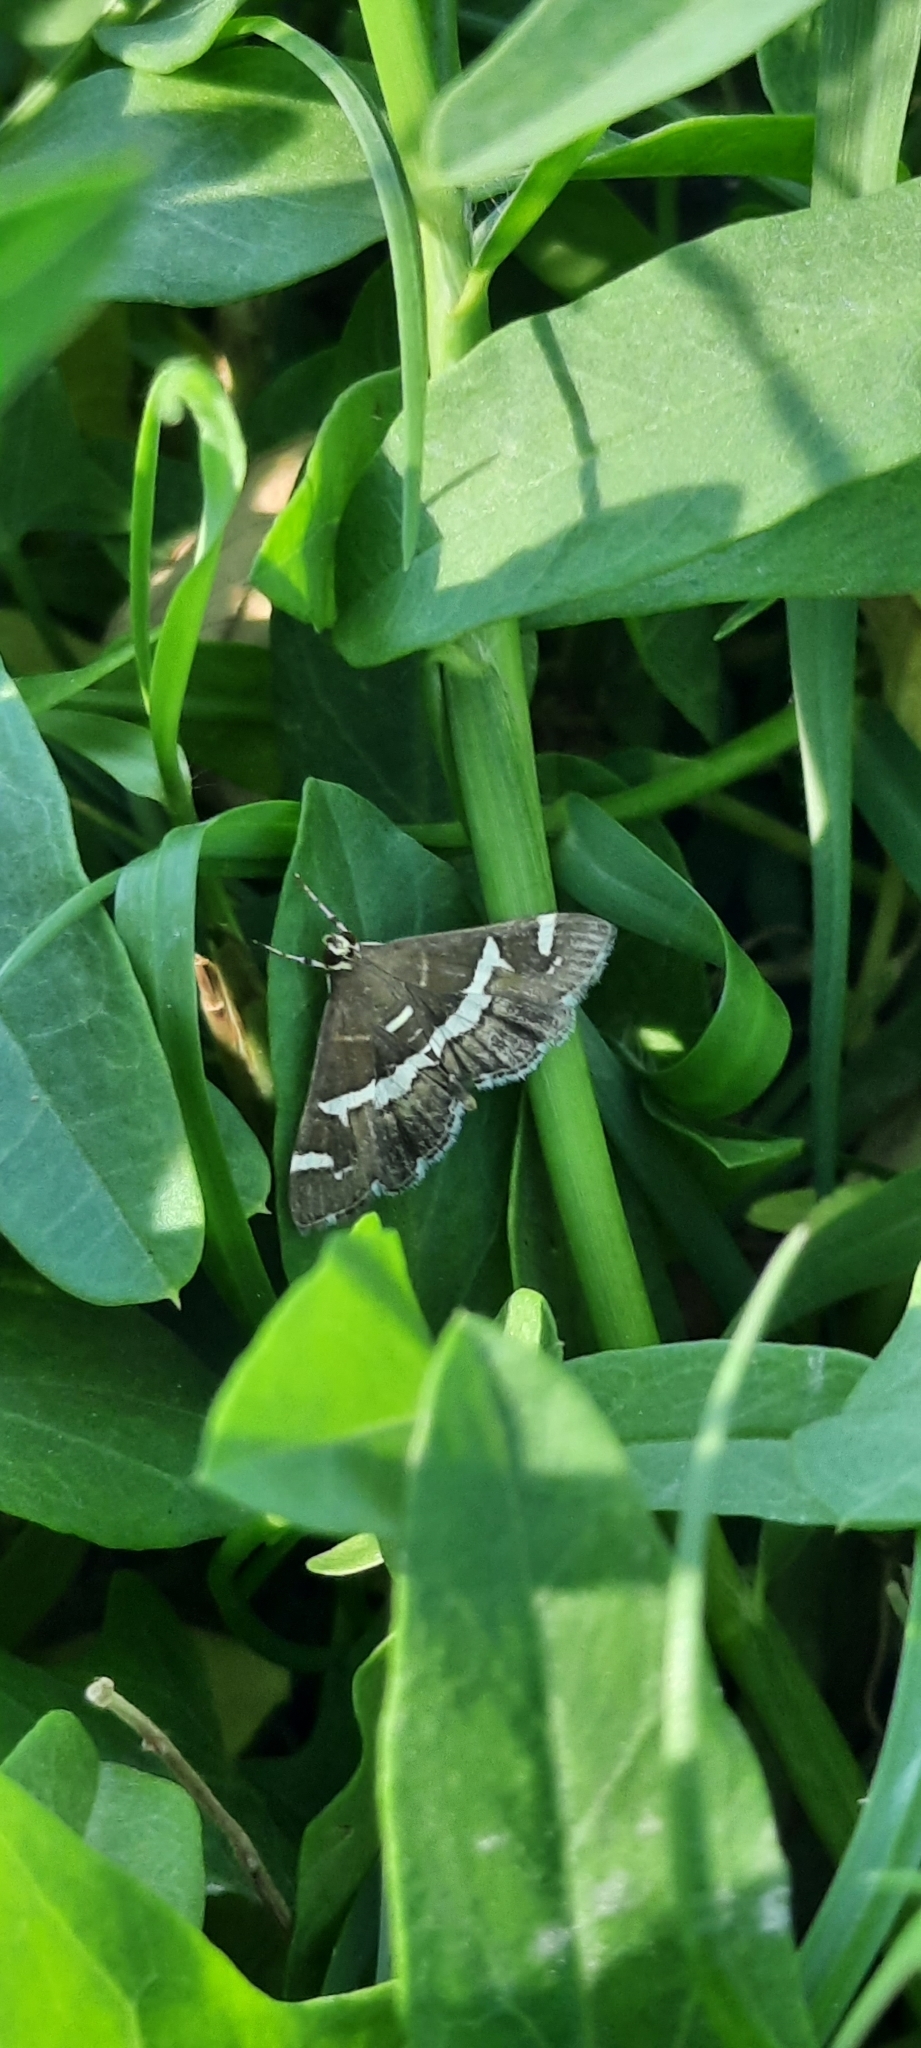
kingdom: Animalia
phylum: Arthropoda
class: Insecta
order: Lepidoptera
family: Crambidae
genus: Spoladea
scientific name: Spoladea recurvalis
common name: Beet webworm moth
